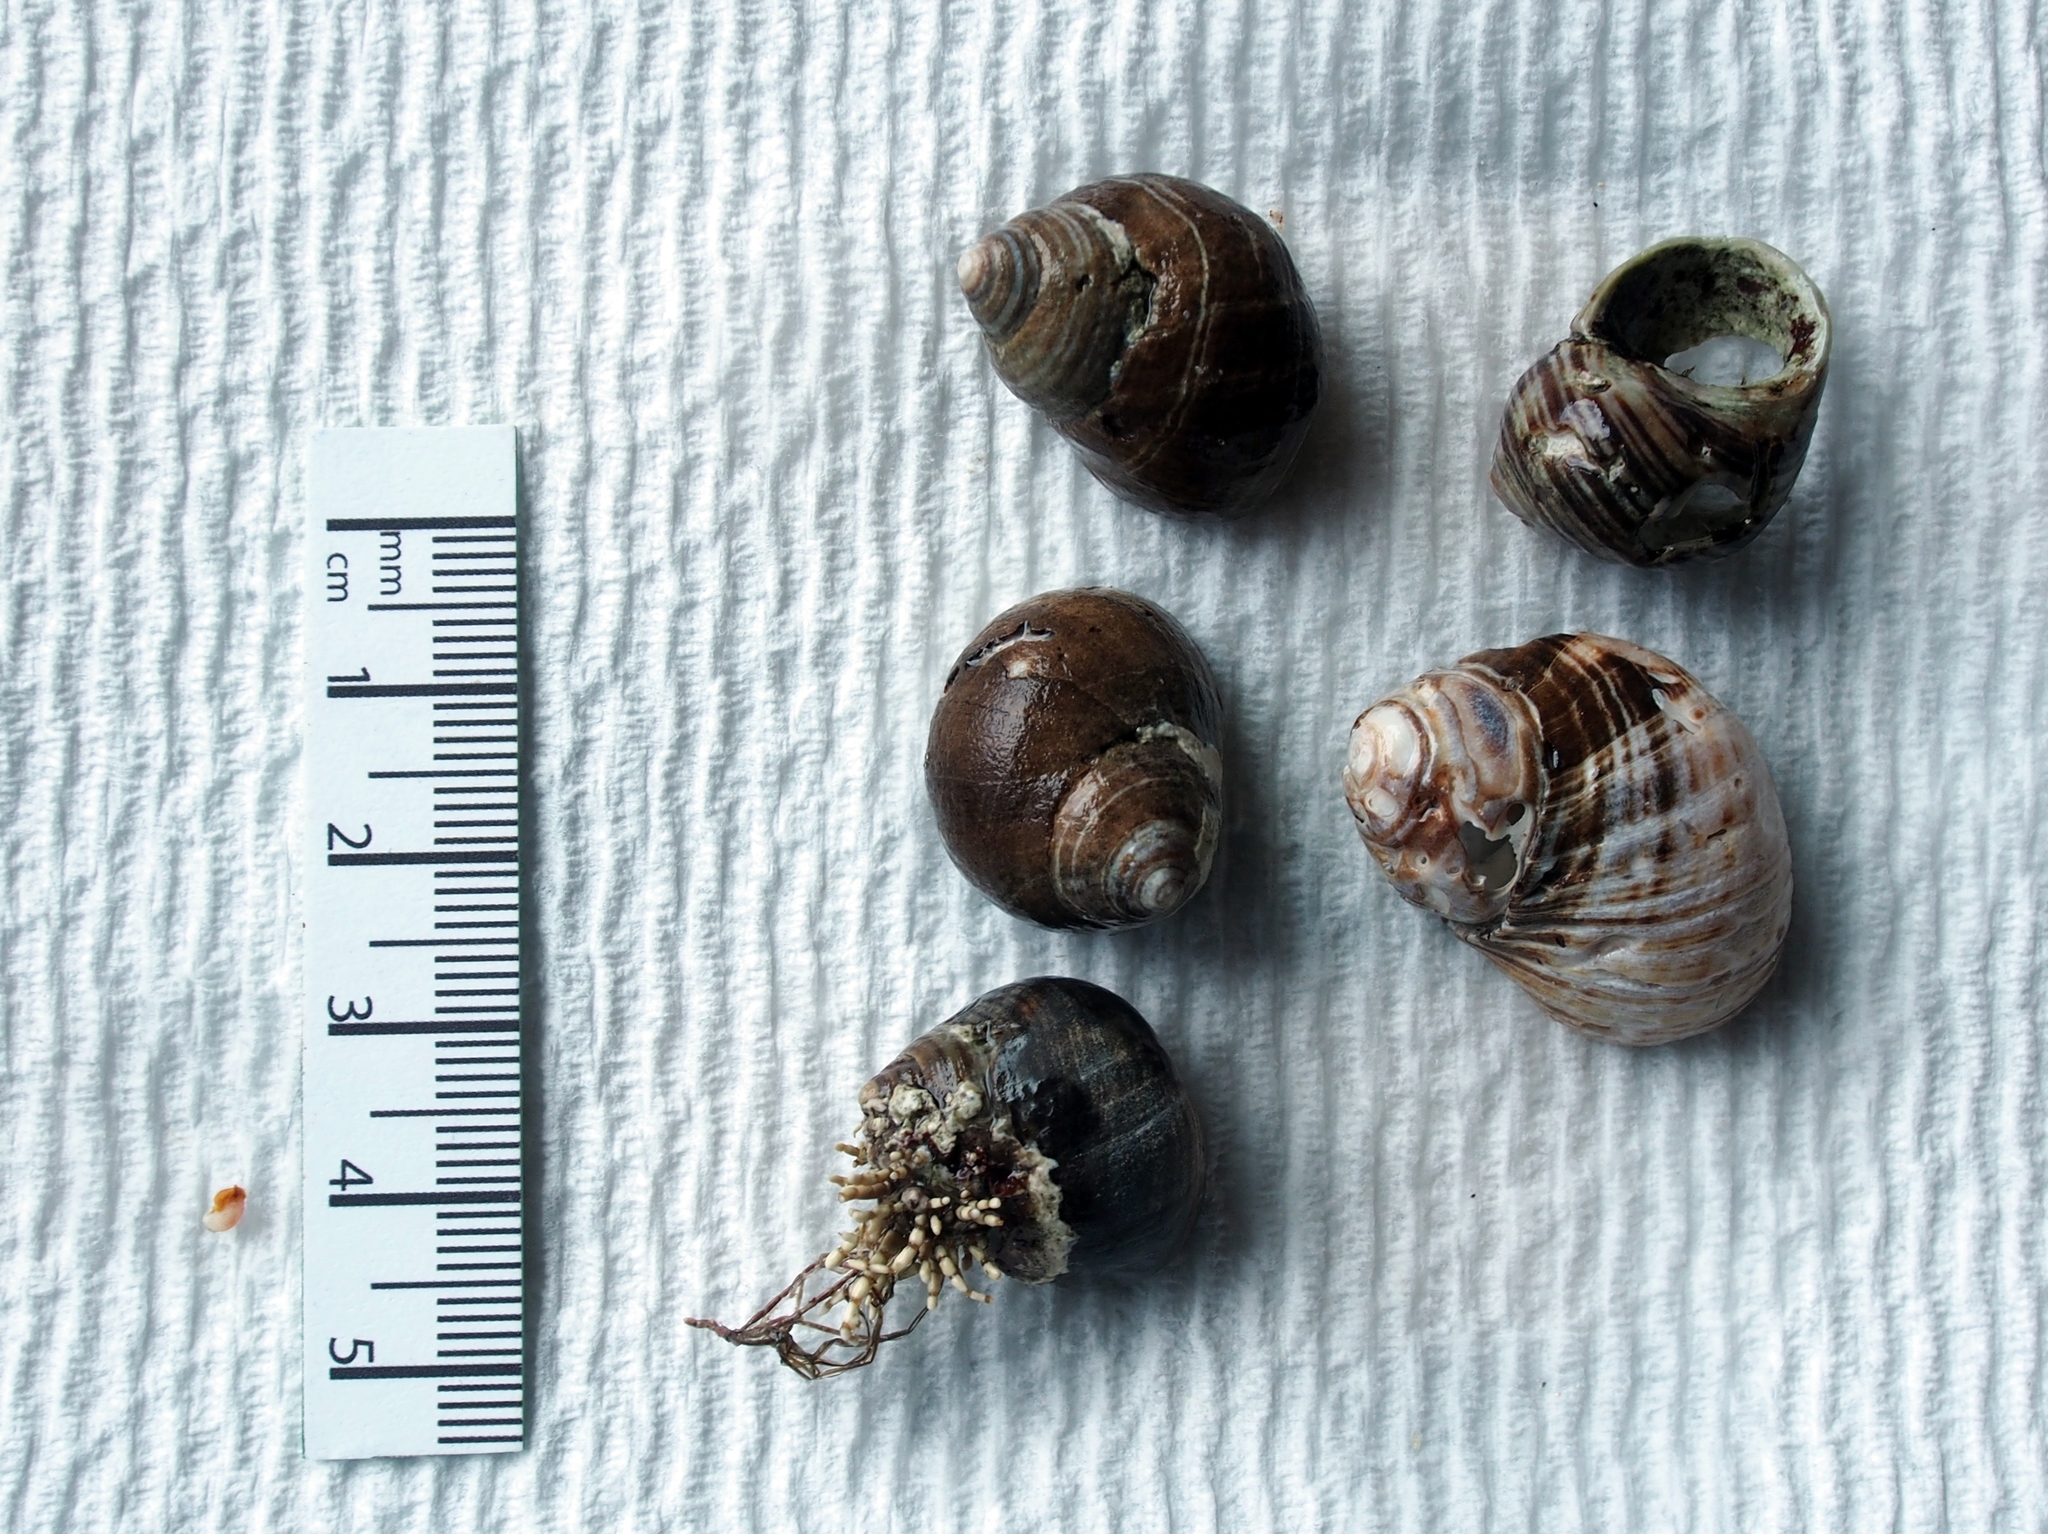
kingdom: Animalia
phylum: Mollusca
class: Gastropoda
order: Littorinimorpha
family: Littorinidae
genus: Littorina
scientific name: Littorina littorea
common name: Common periwinkle
